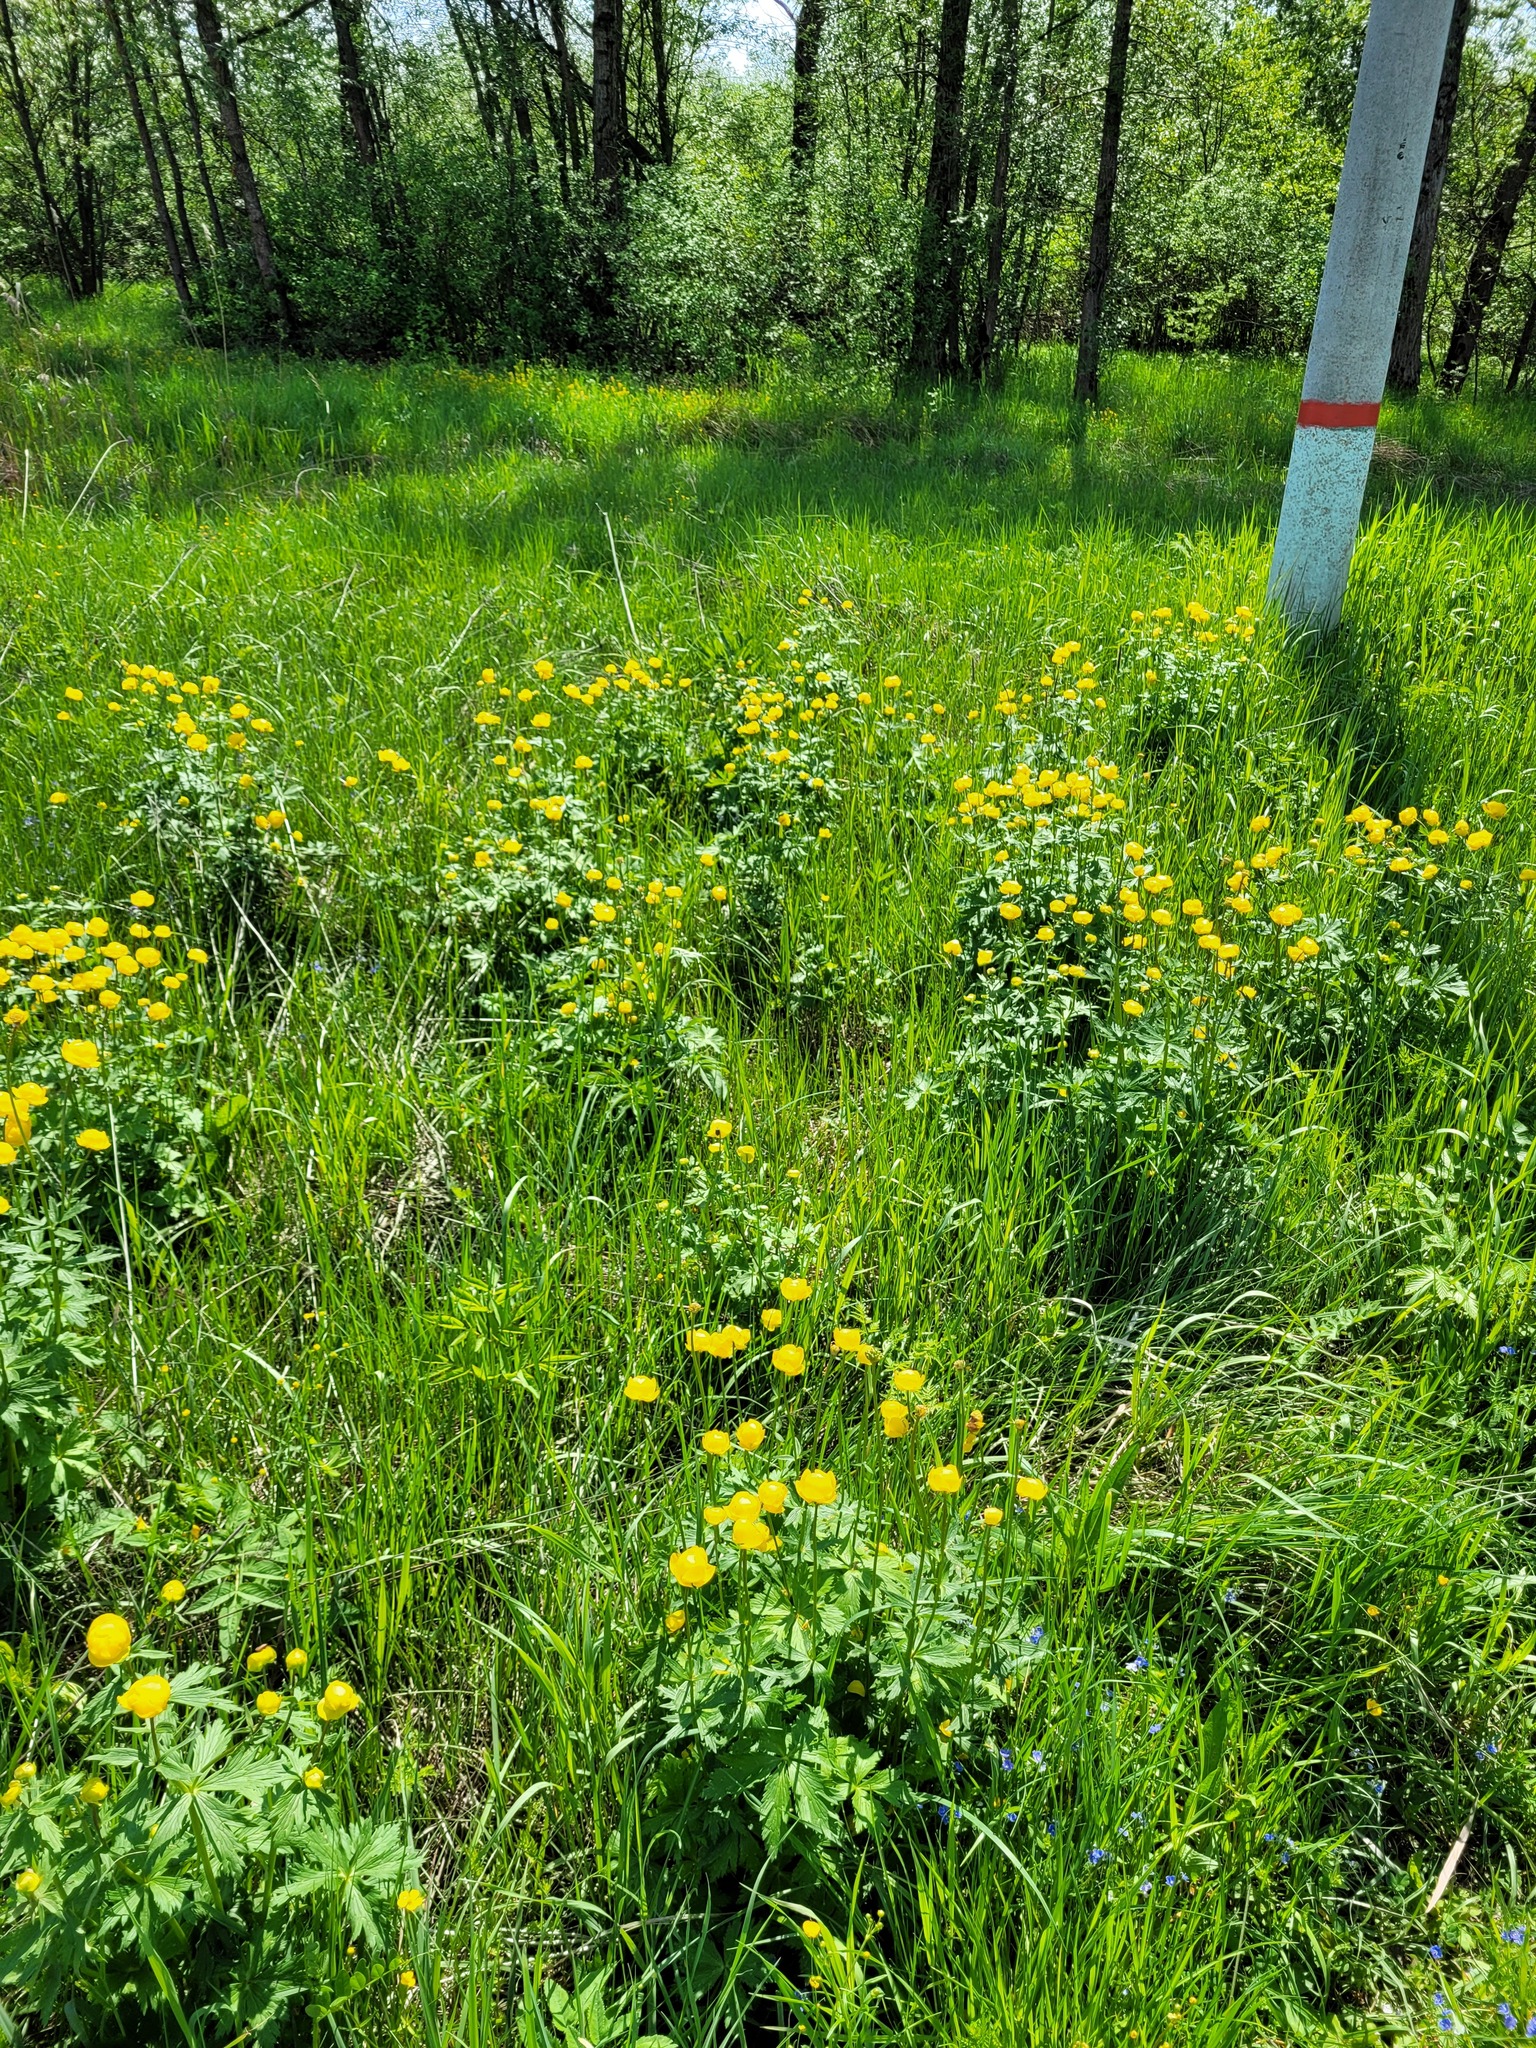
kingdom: Plantae
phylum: Tracheophyta
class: Magnoliopsida
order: Ranunculales
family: Ranunculaceae
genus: Trollius
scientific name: Trollius europaeus
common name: European globeflower
